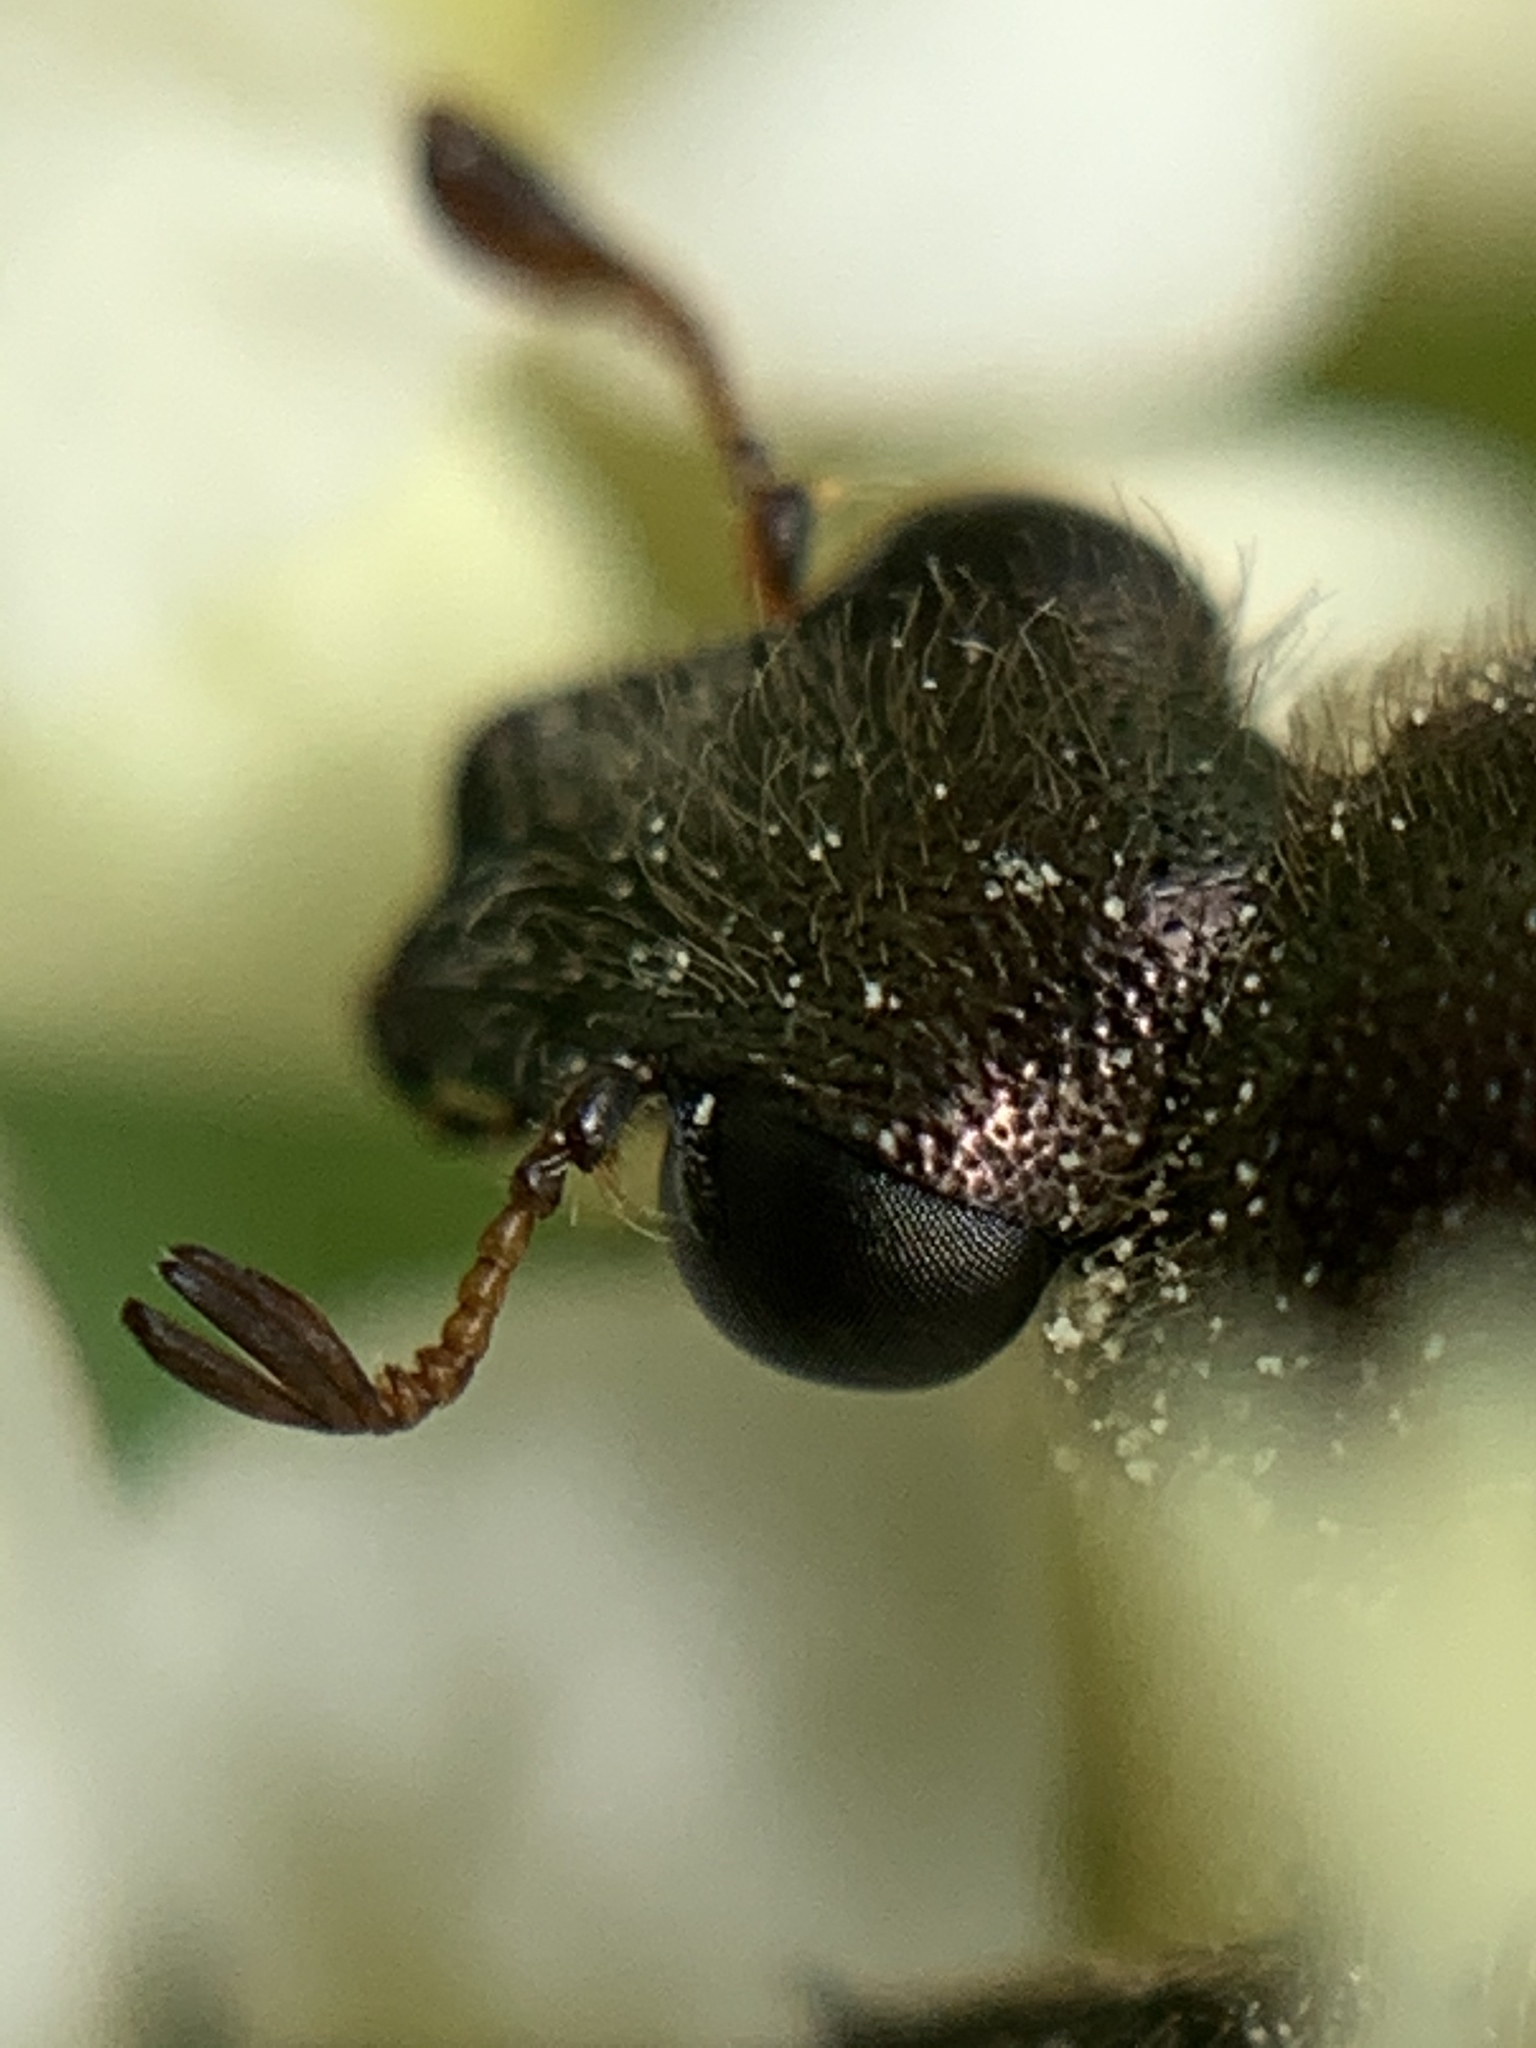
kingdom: Animalia
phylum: Arthropoda
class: Insecta
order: Coleoptera
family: Scarabaeidae
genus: Trichiotinus
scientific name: Trichiotinus piger
